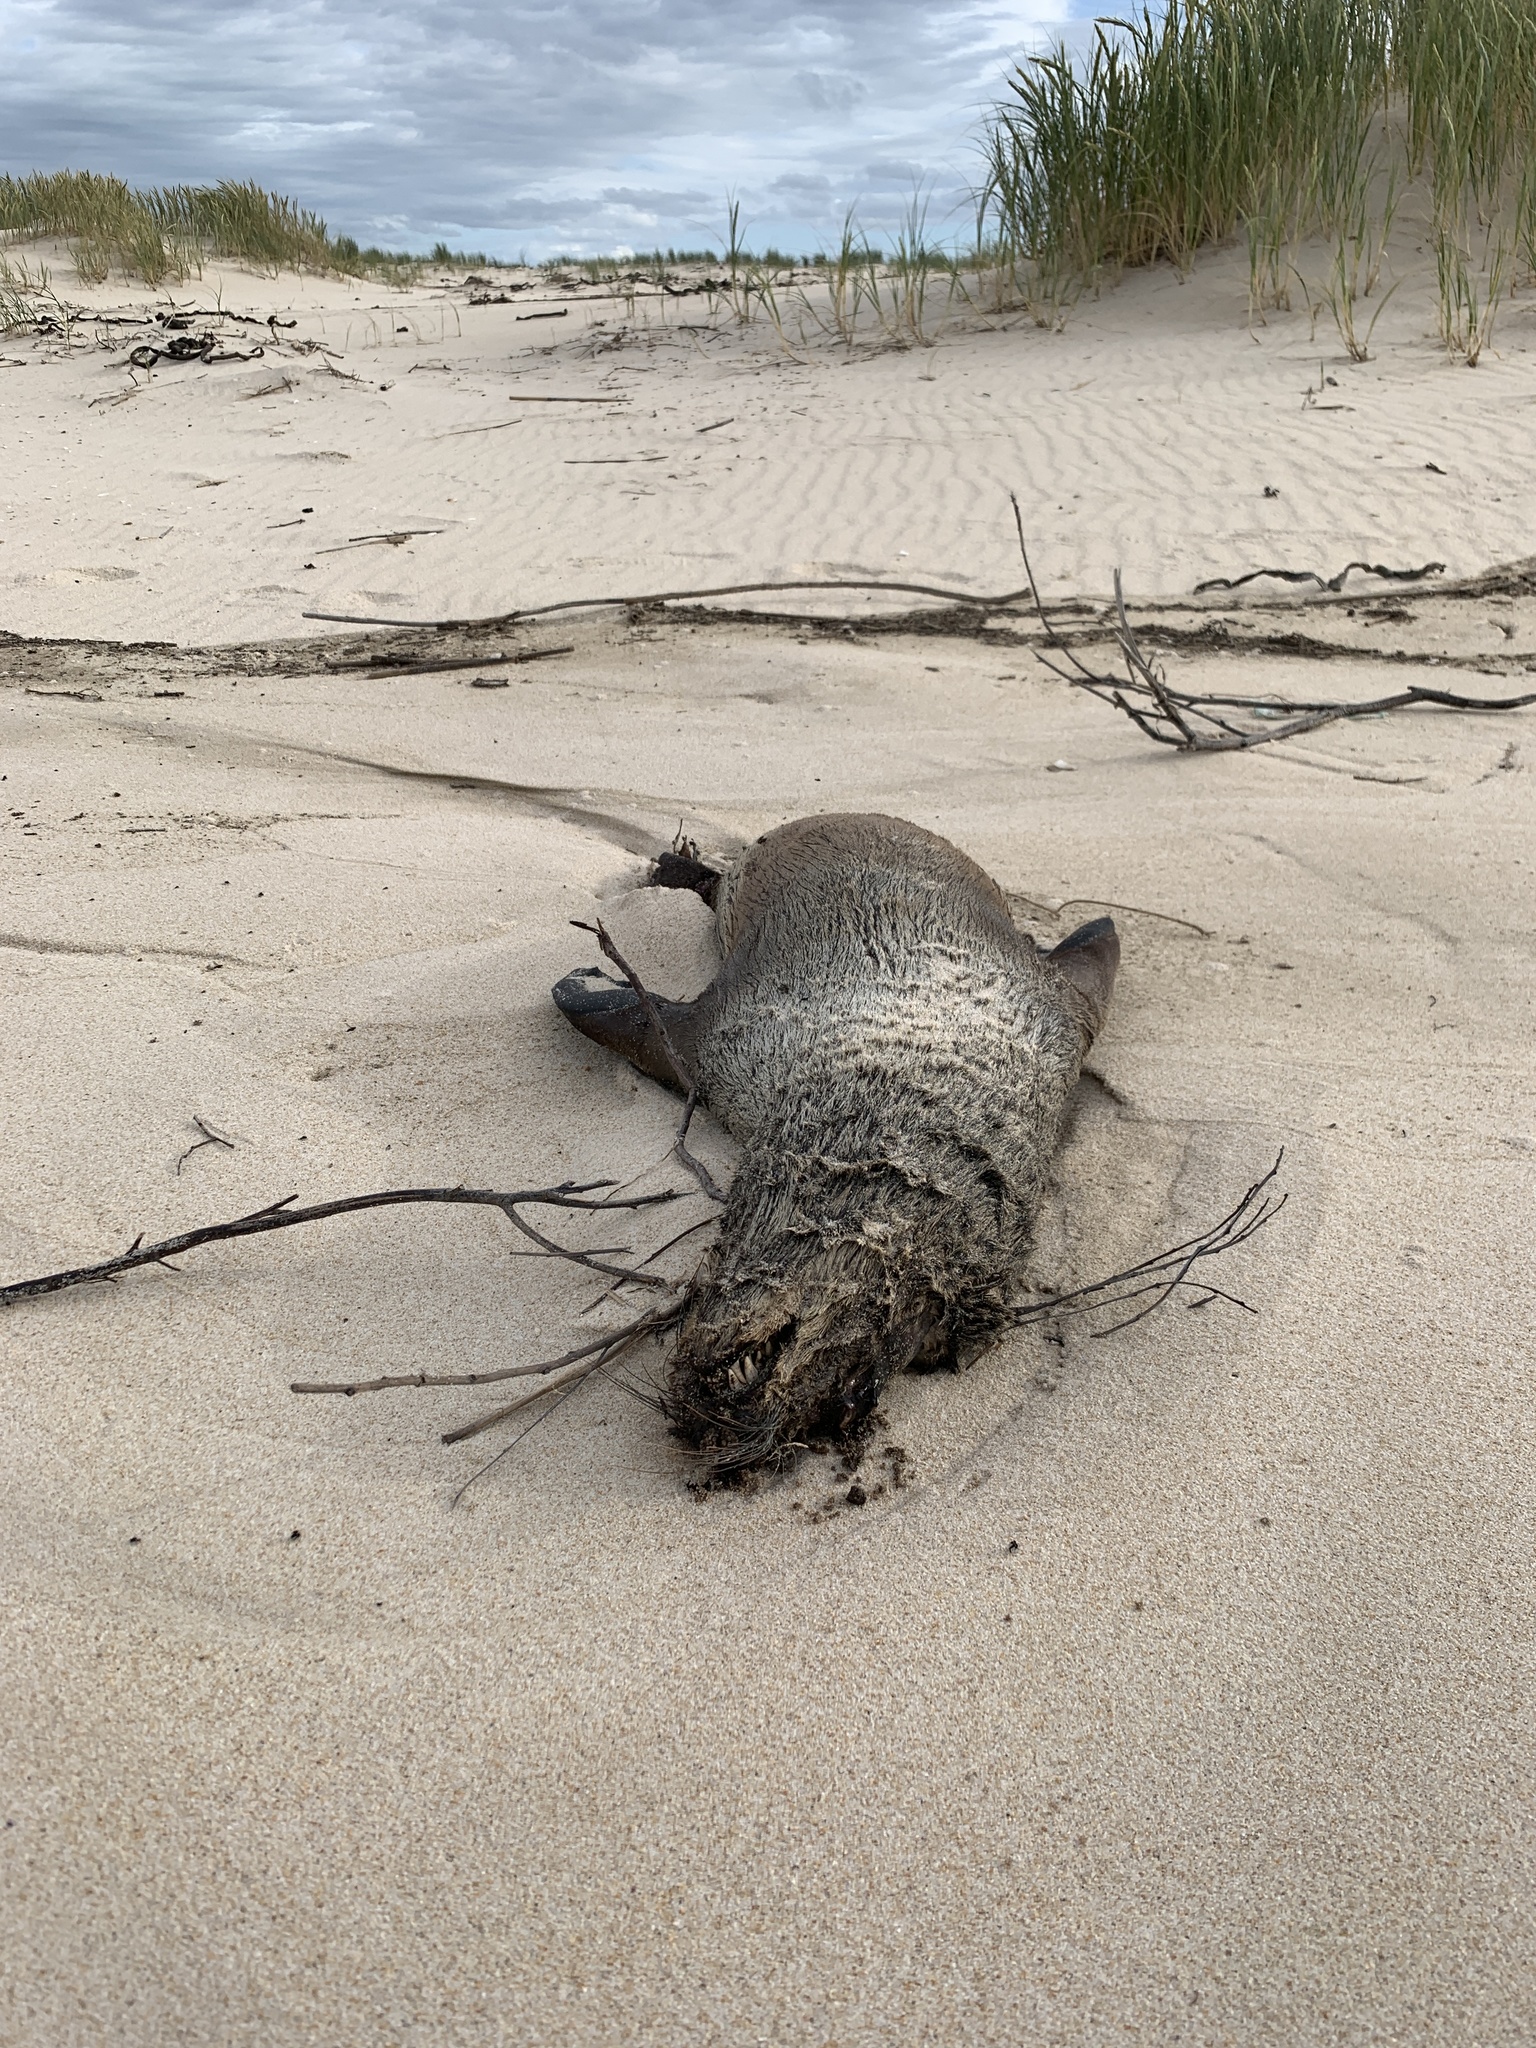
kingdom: Animalia
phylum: Chordata
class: Mammalia
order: Carnivora
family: Otariidae
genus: Arctocephalus
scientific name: Arctocephalus pusillus
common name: Brown fur seal
